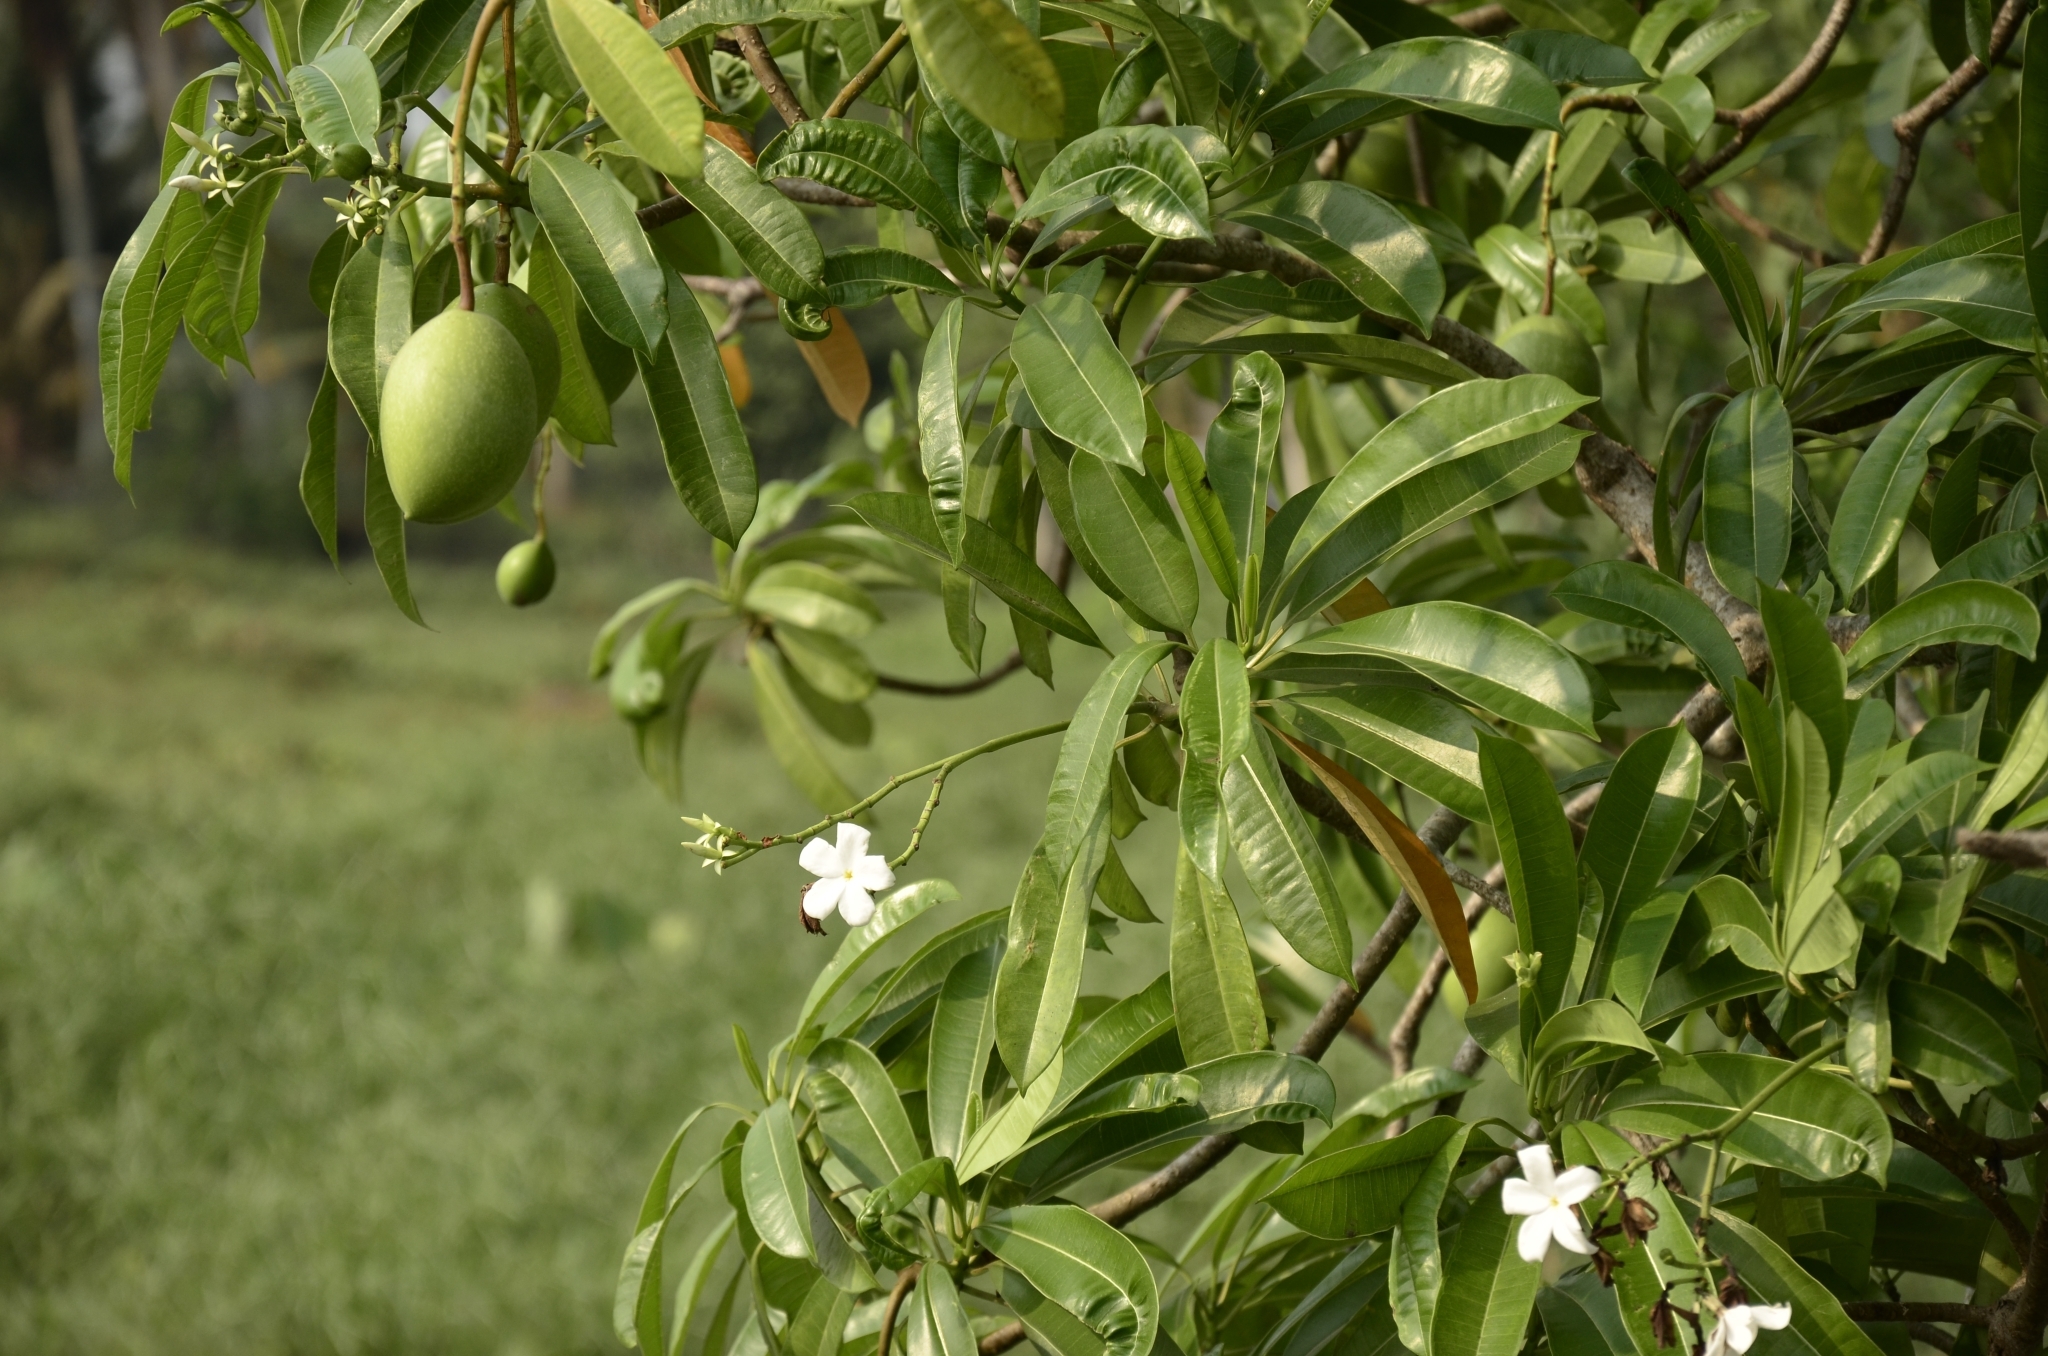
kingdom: Plantae
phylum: Tracheophyta
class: Magnoliopsida
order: Gentianales
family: Apocynaceae
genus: Cerbera
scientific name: Cerbera odollam
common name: Pong-pong
